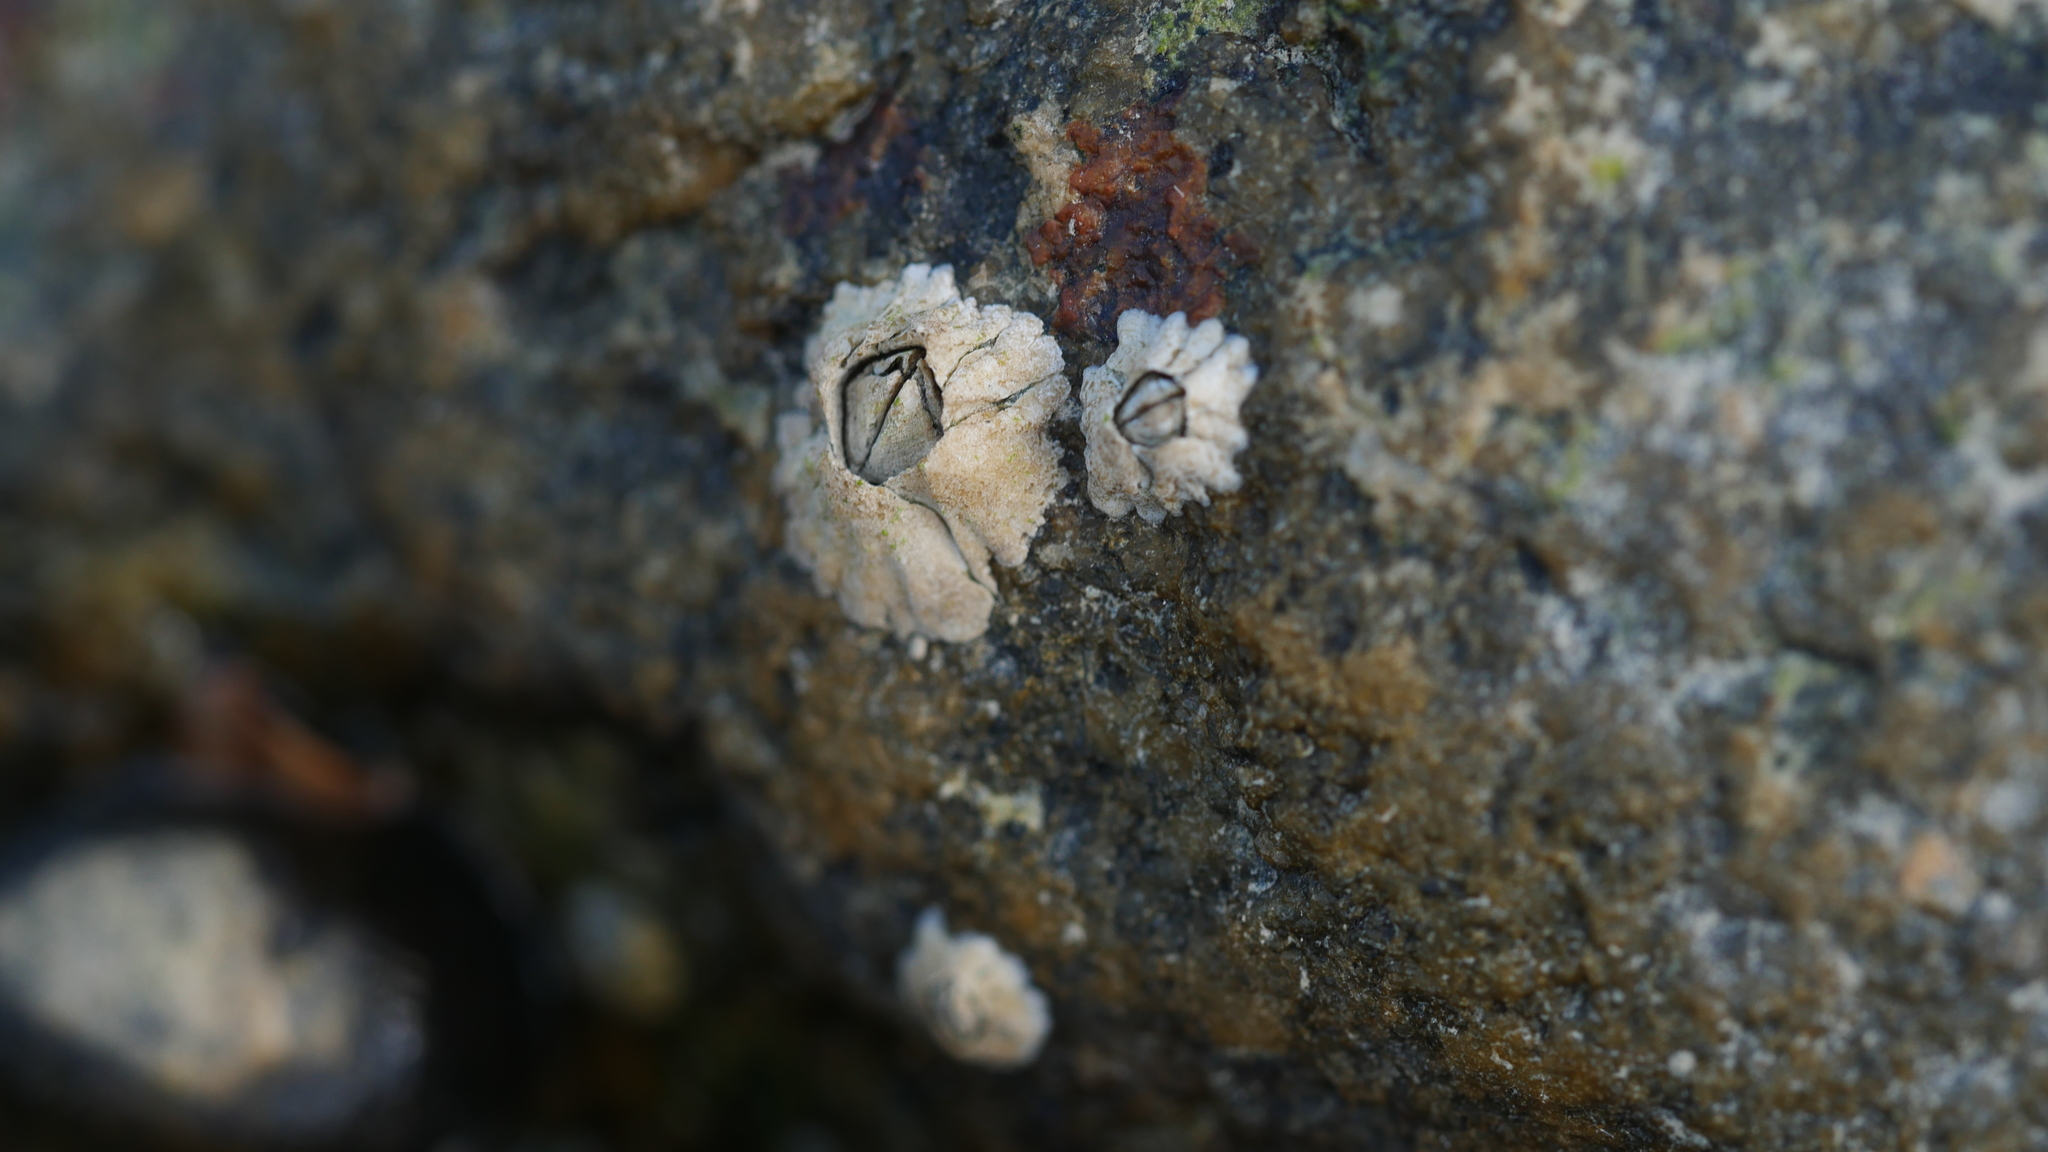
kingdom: Animalia
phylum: Arthropoda
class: Maxillopoda
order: Sessilia
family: Archaeobalanidae
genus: Semibalanus
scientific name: Semibalanus balanoides
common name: Acorn barnacle
